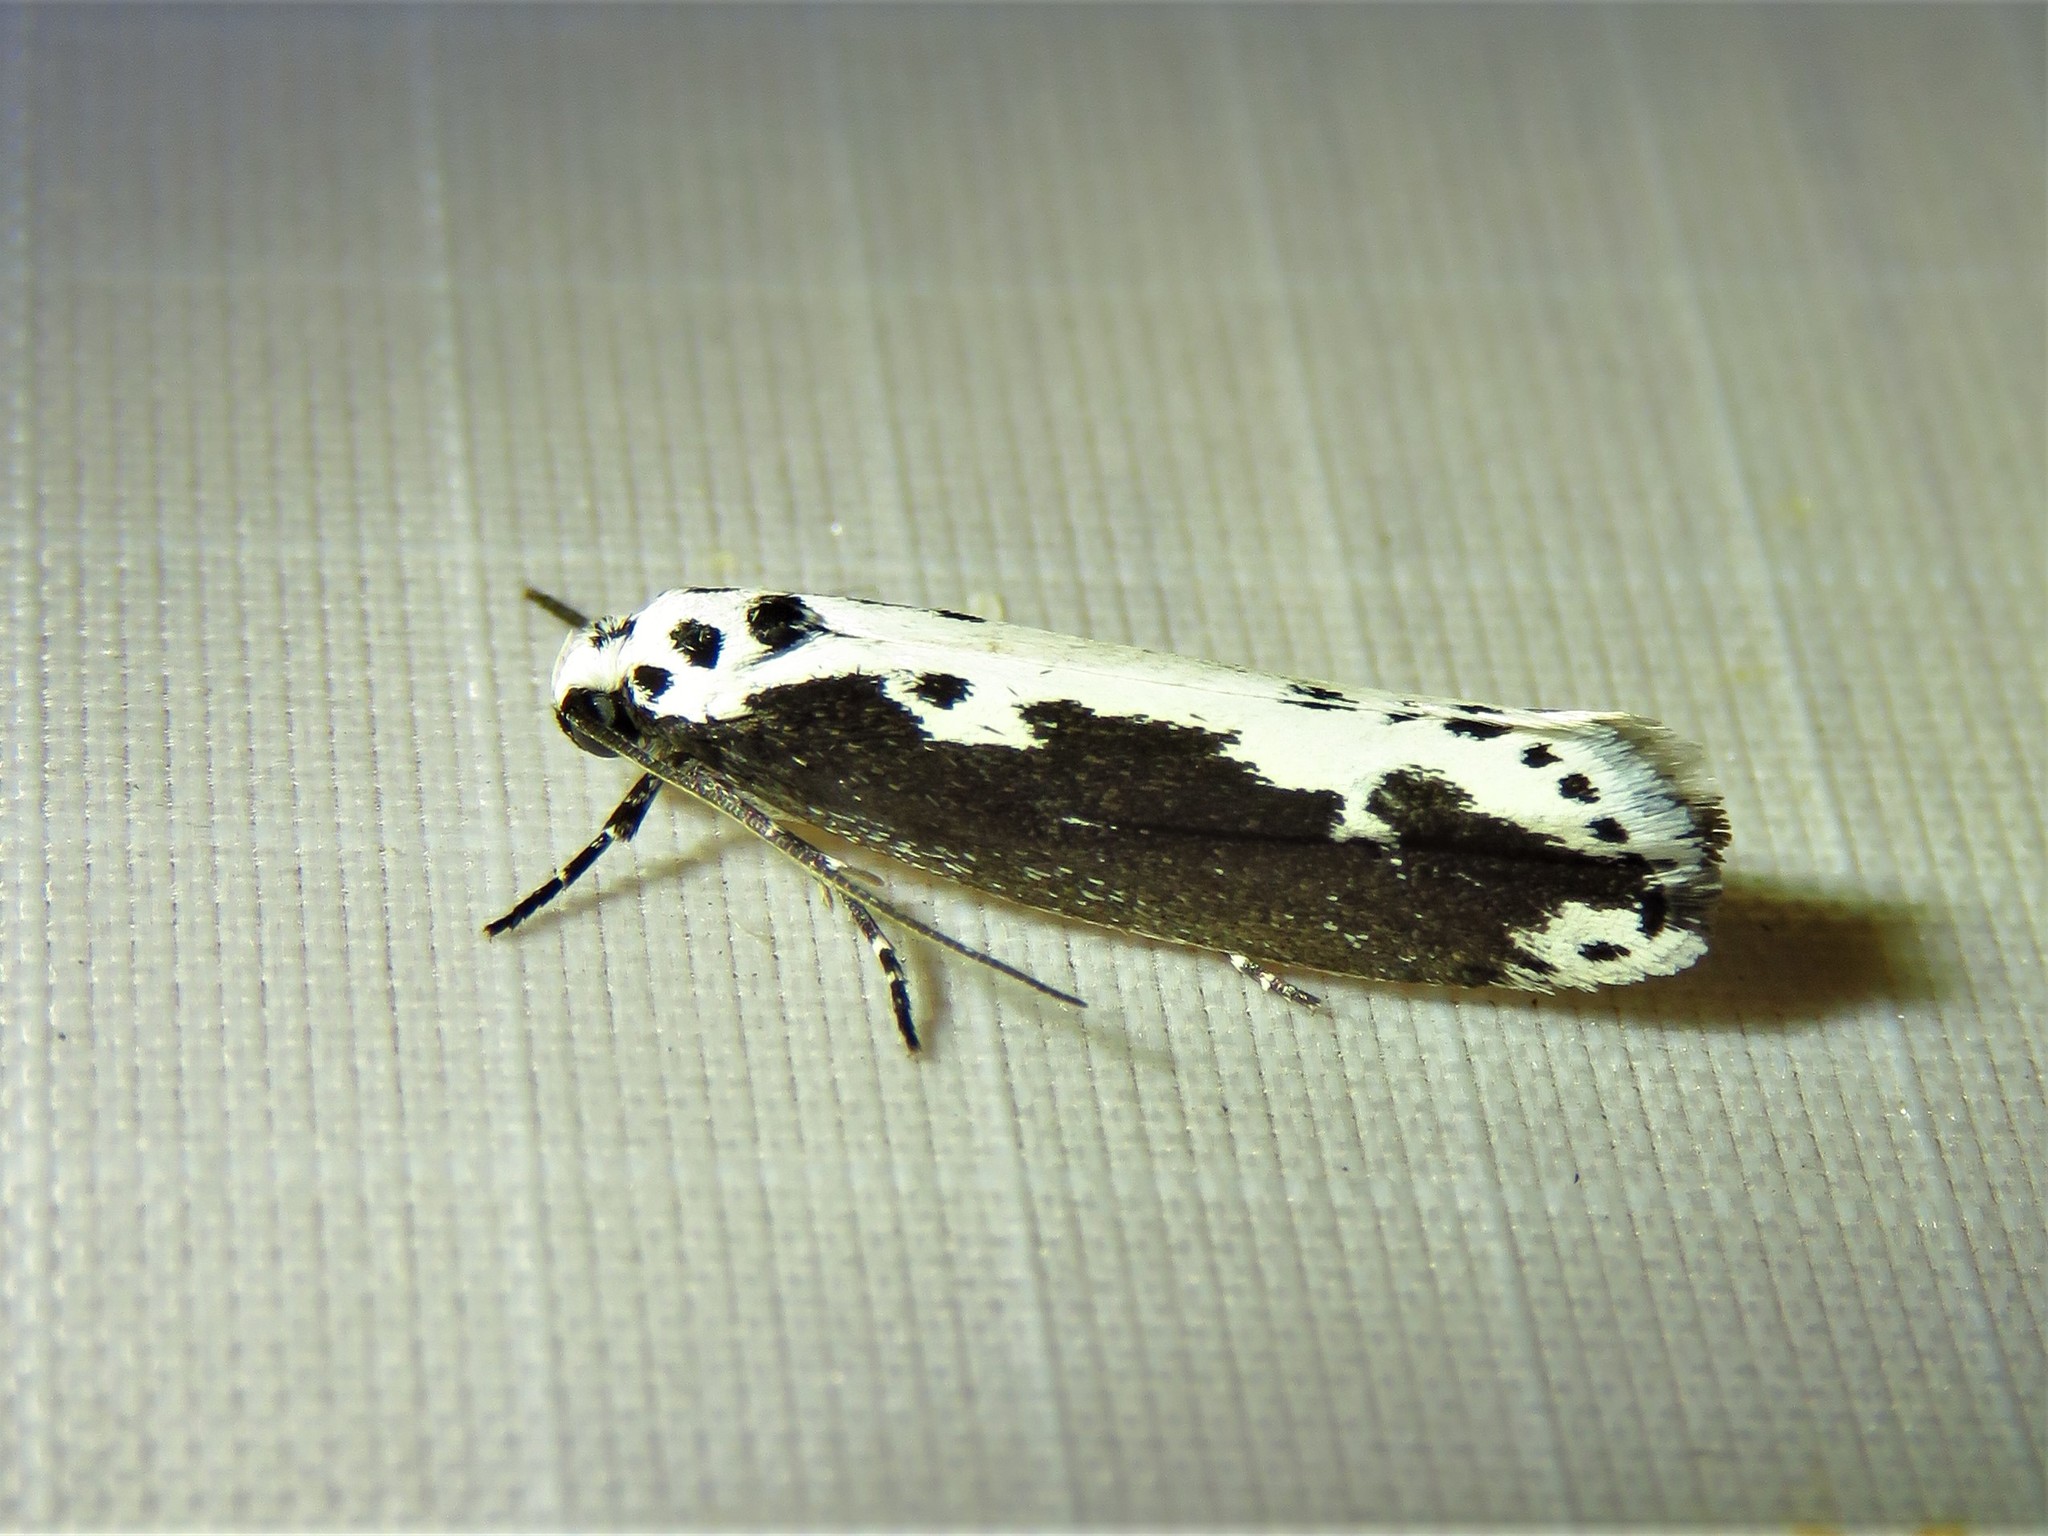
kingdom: Animalia
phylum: Arthropoda
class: Insecta
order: Lepidoptera
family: Ethmiidae
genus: Ethmia
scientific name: Ethmia semilugens
